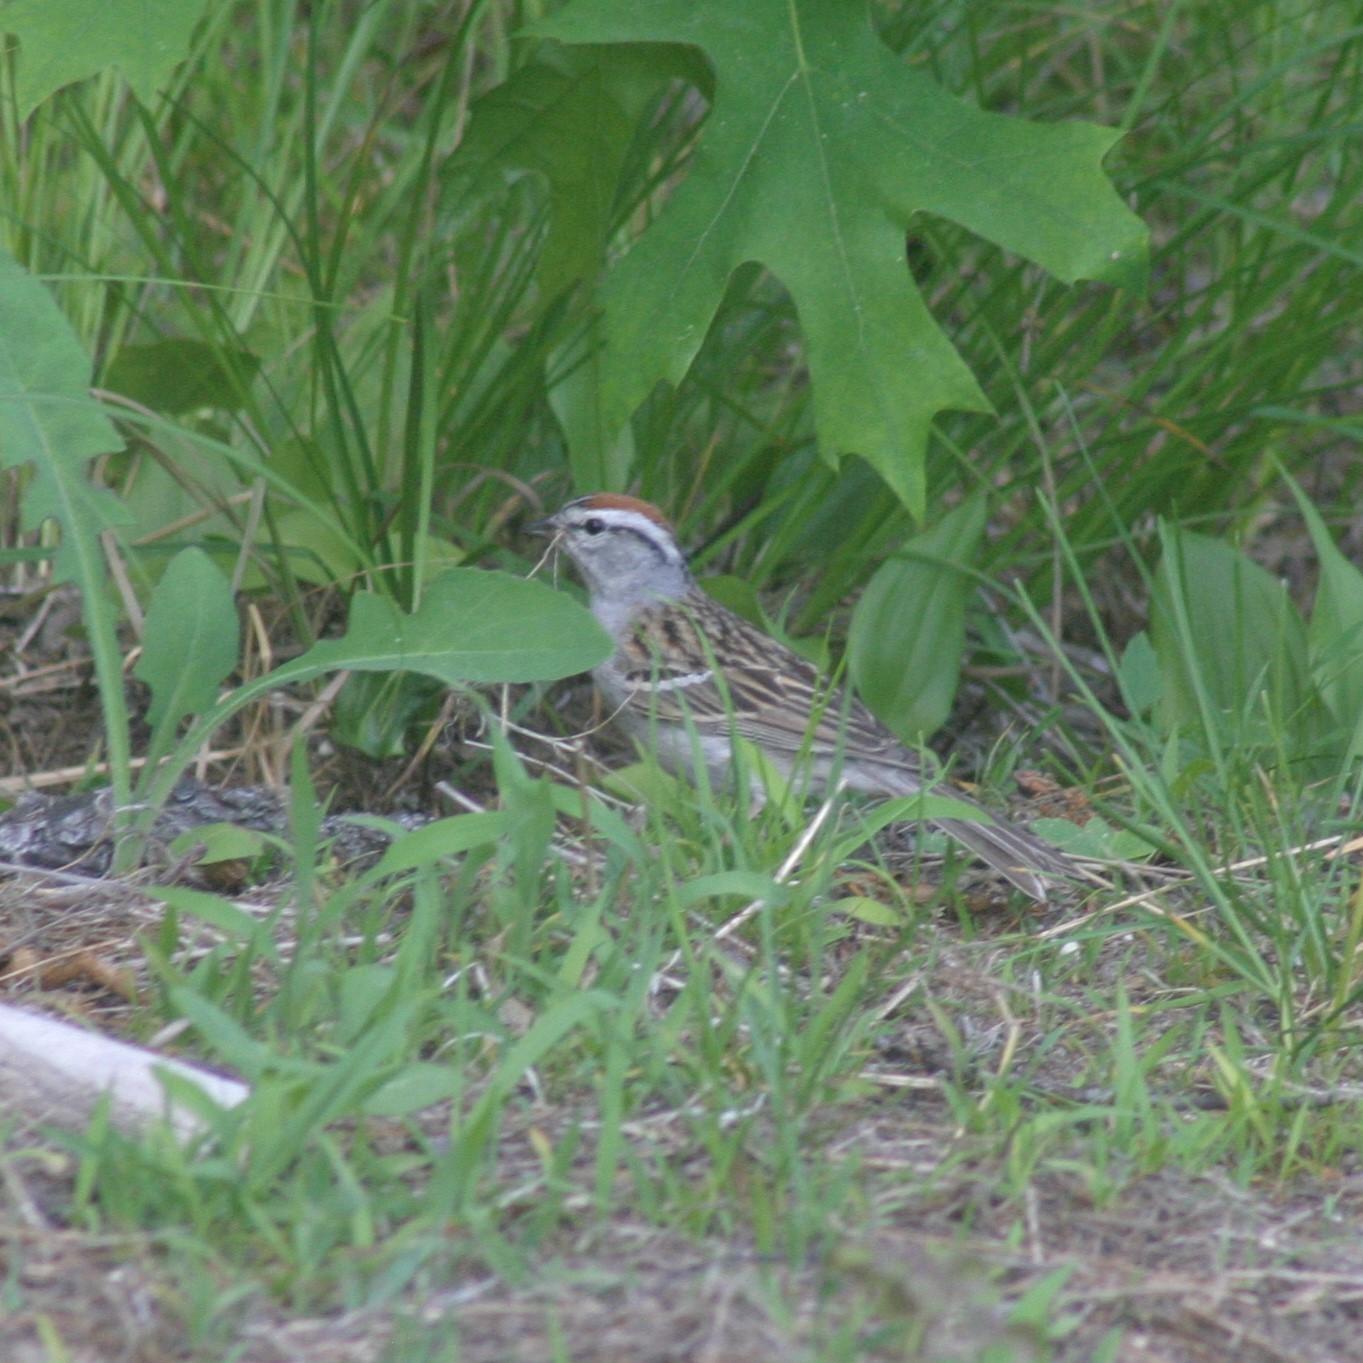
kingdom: Animalia
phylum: Chordata
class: Aves
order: Passeriformes
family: Passerellidae
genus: Spizella
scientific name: Spizella passerina
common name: Chipping sparrow
